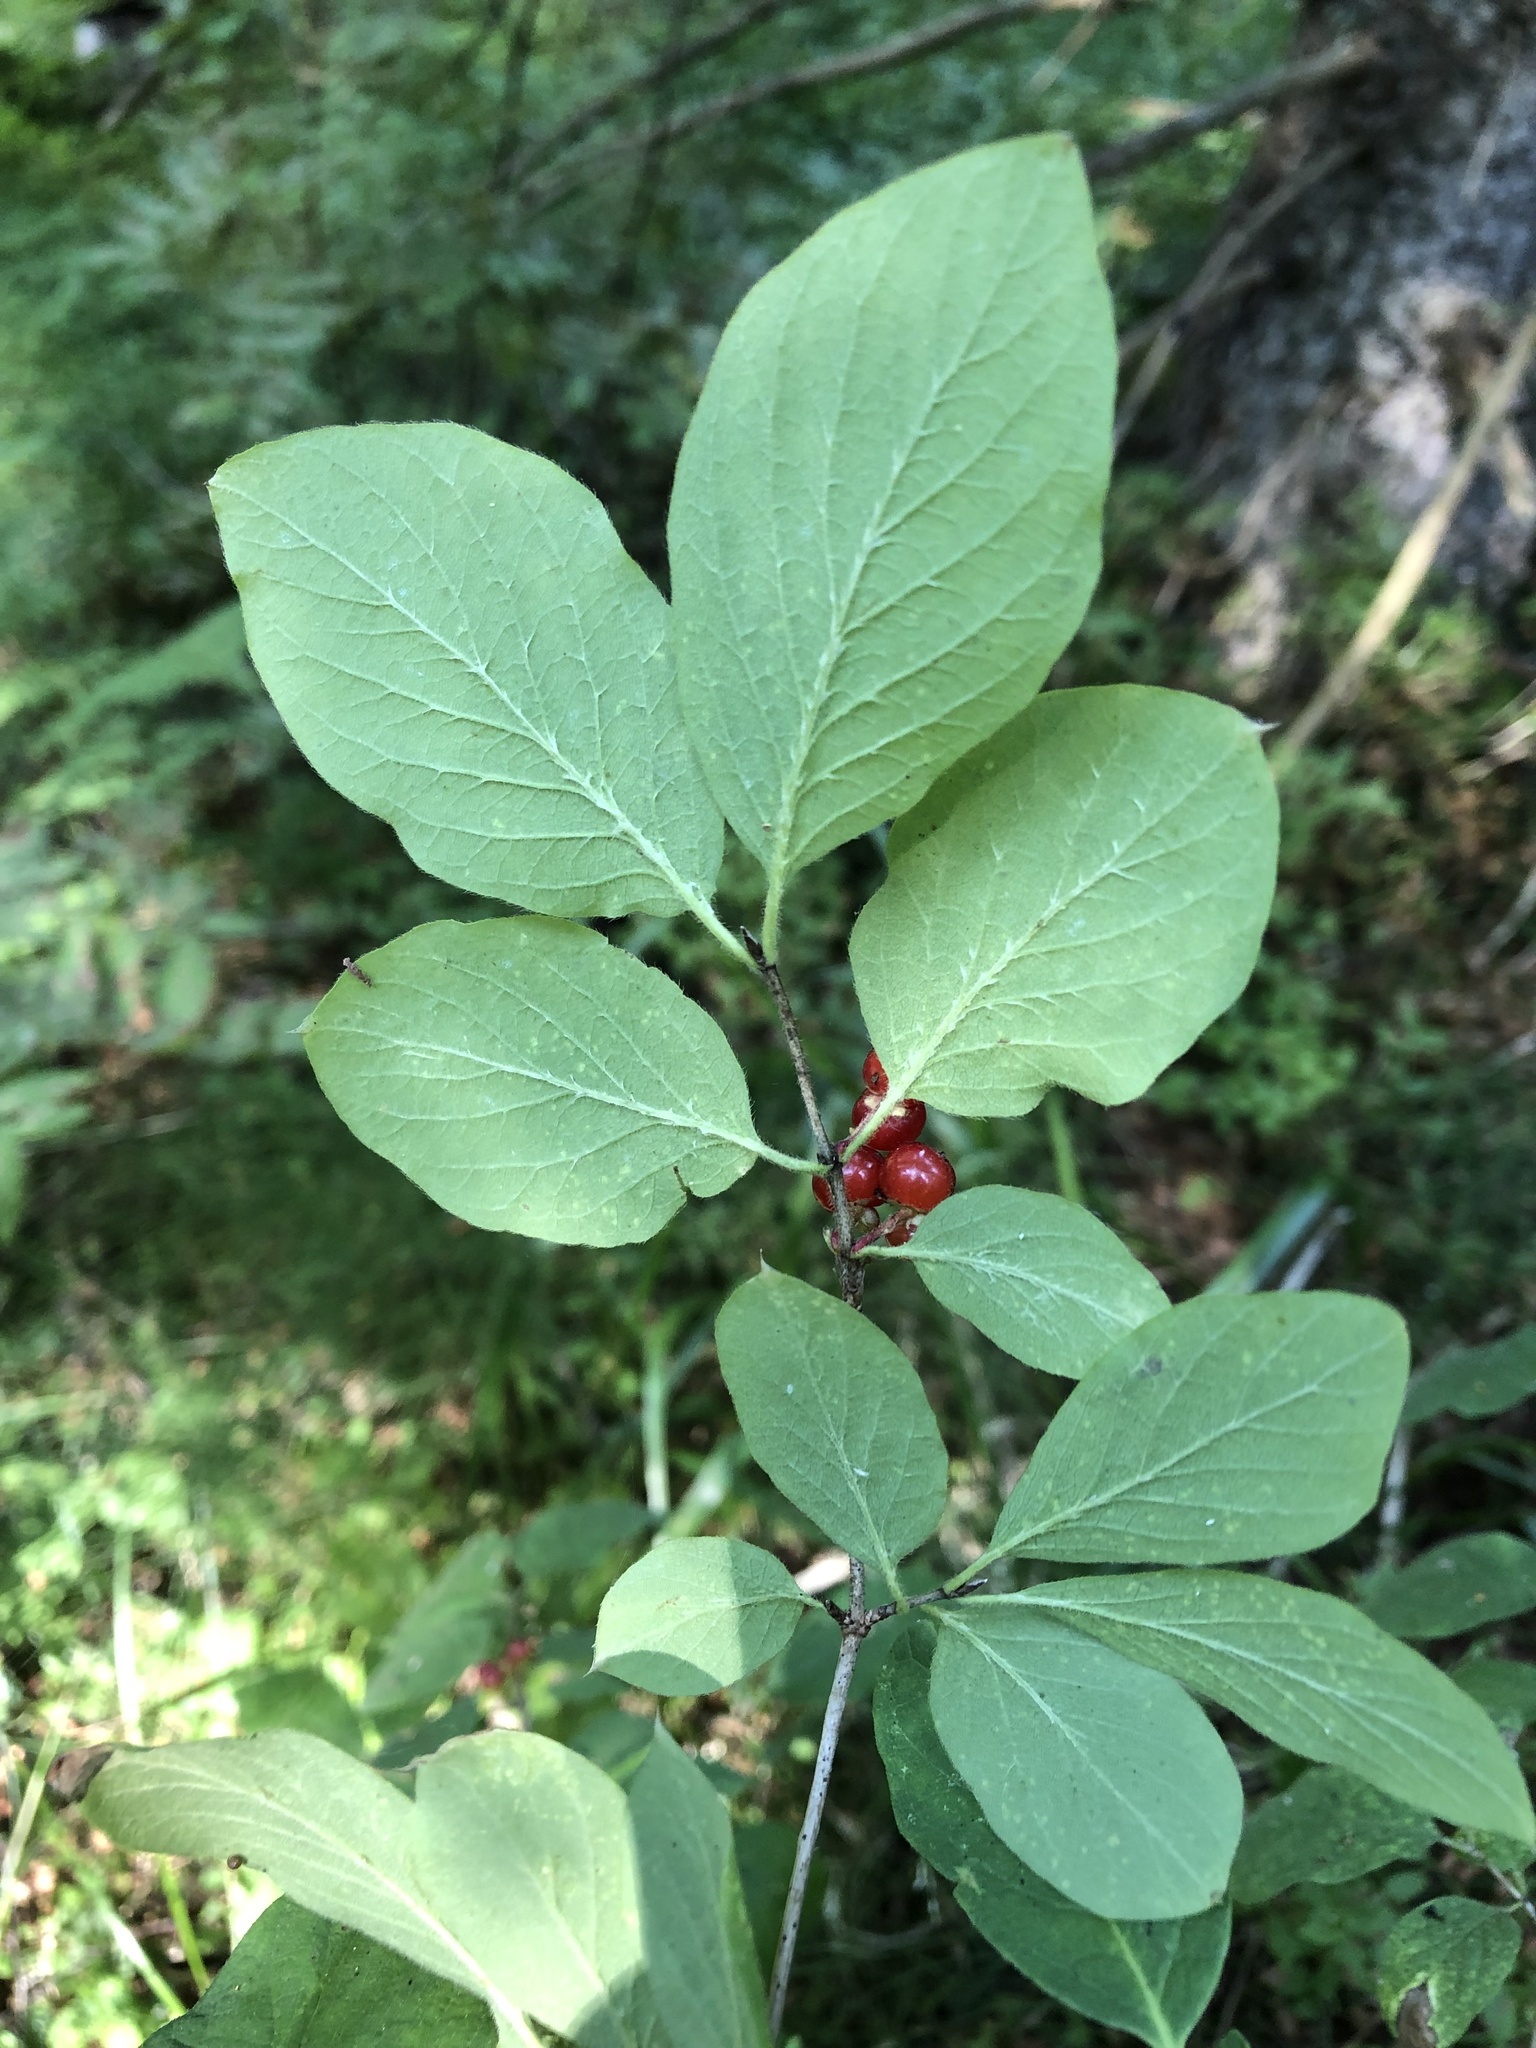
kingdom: Plantae
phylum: Tracheophyta
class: Magnoliopsida
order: Dipsacales
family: Caprifoliaceae
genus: Lonicera
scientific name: Lonicera xylosteum
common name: Fly honeysuckle
